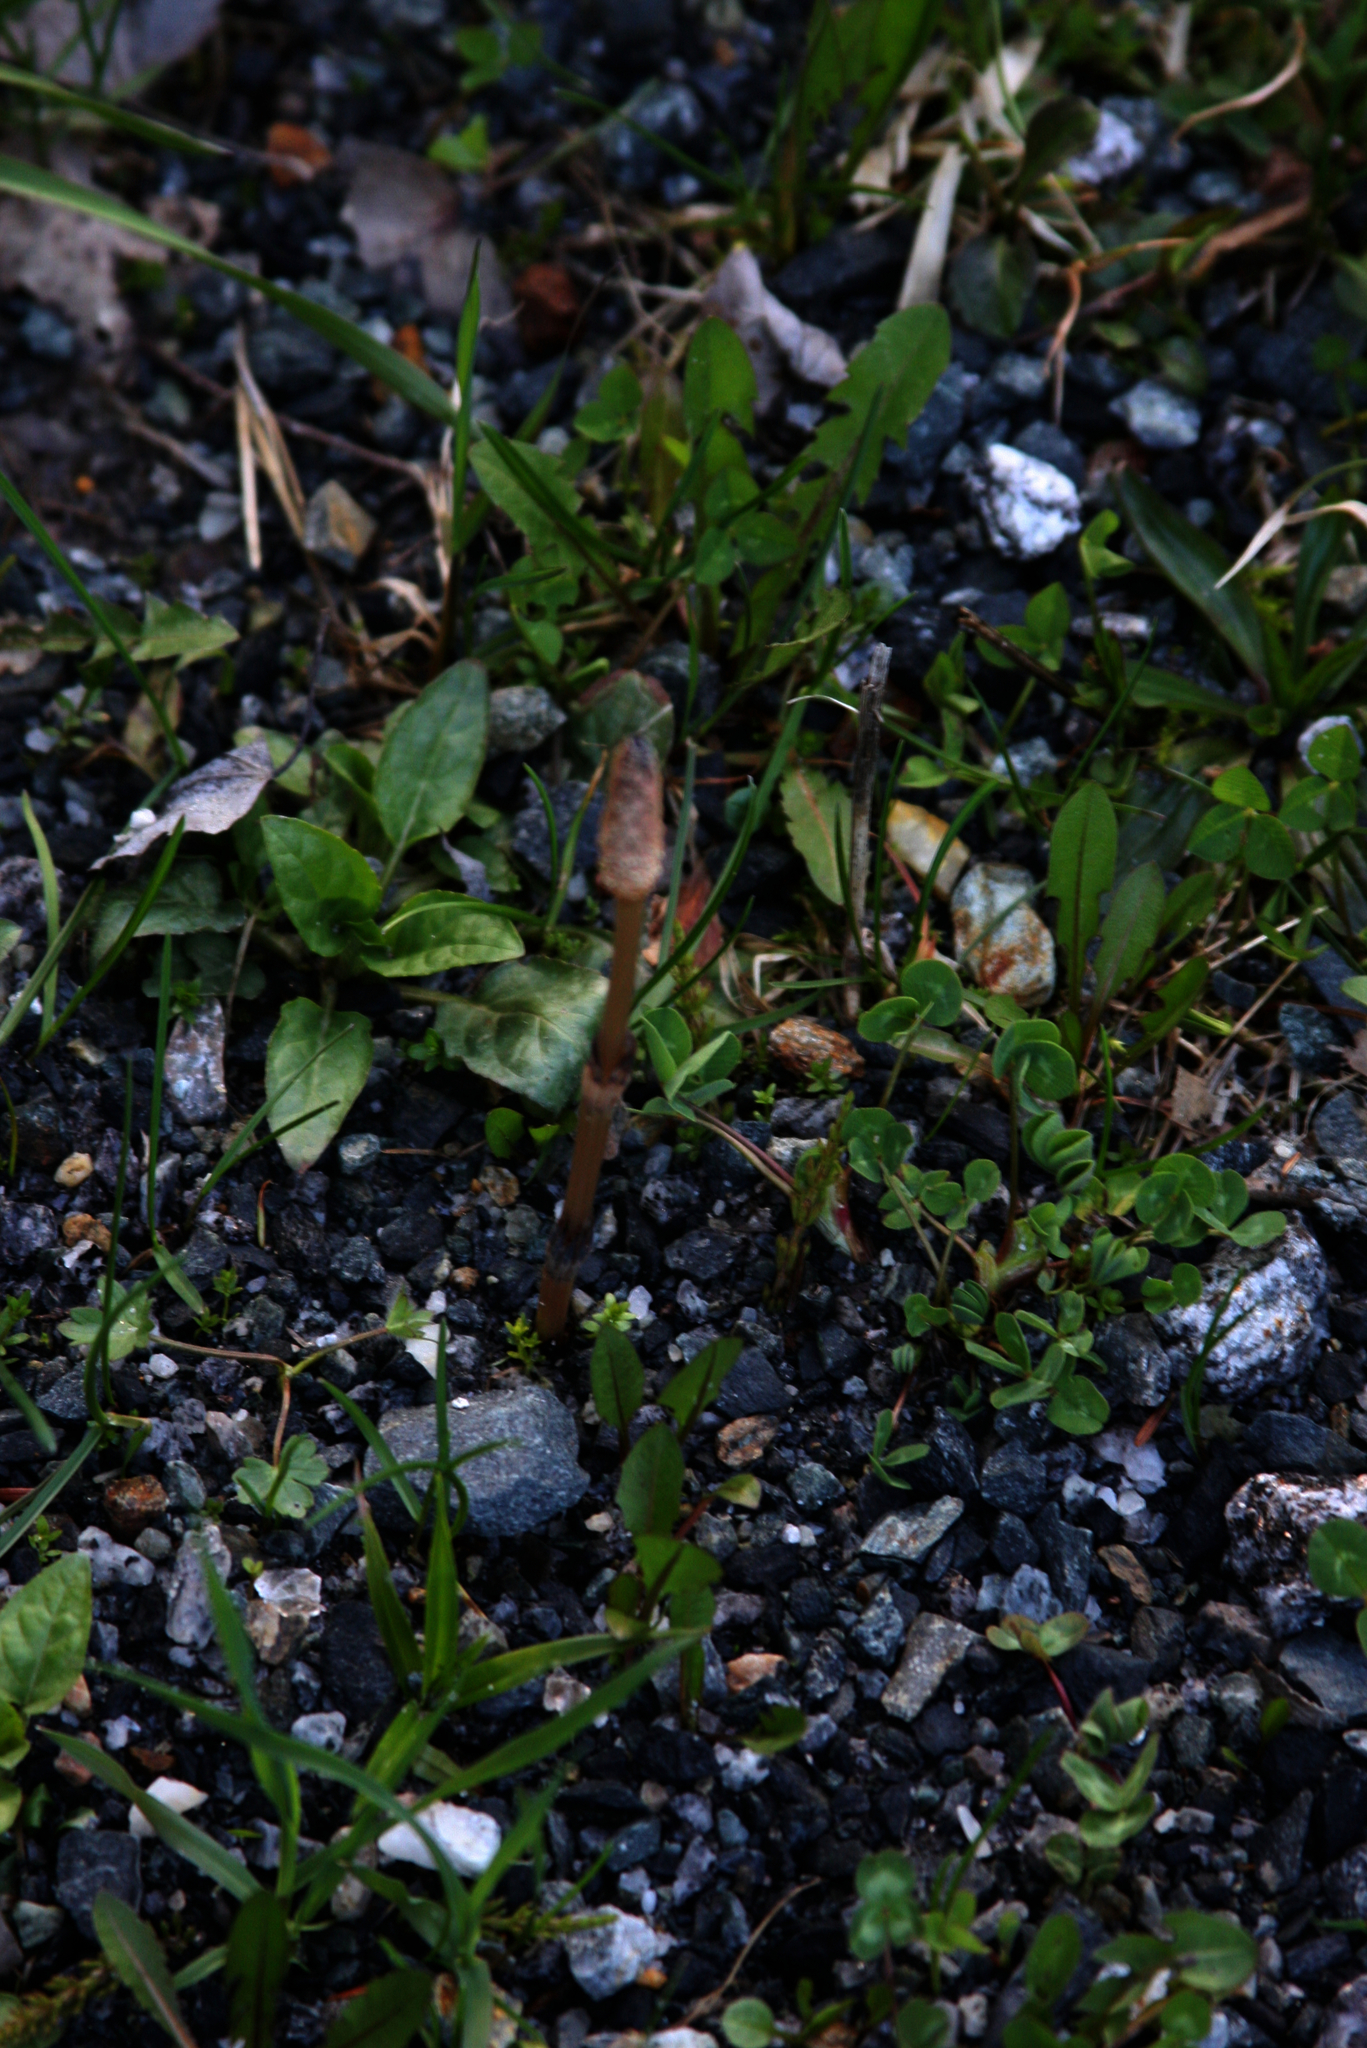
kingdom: Plantae
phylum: Tracheophyta
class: Polypodiopsida
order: Equisetales
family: Equisetaceae
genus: Equisetum
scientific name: Equisetum arvense
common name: Field horsetail
